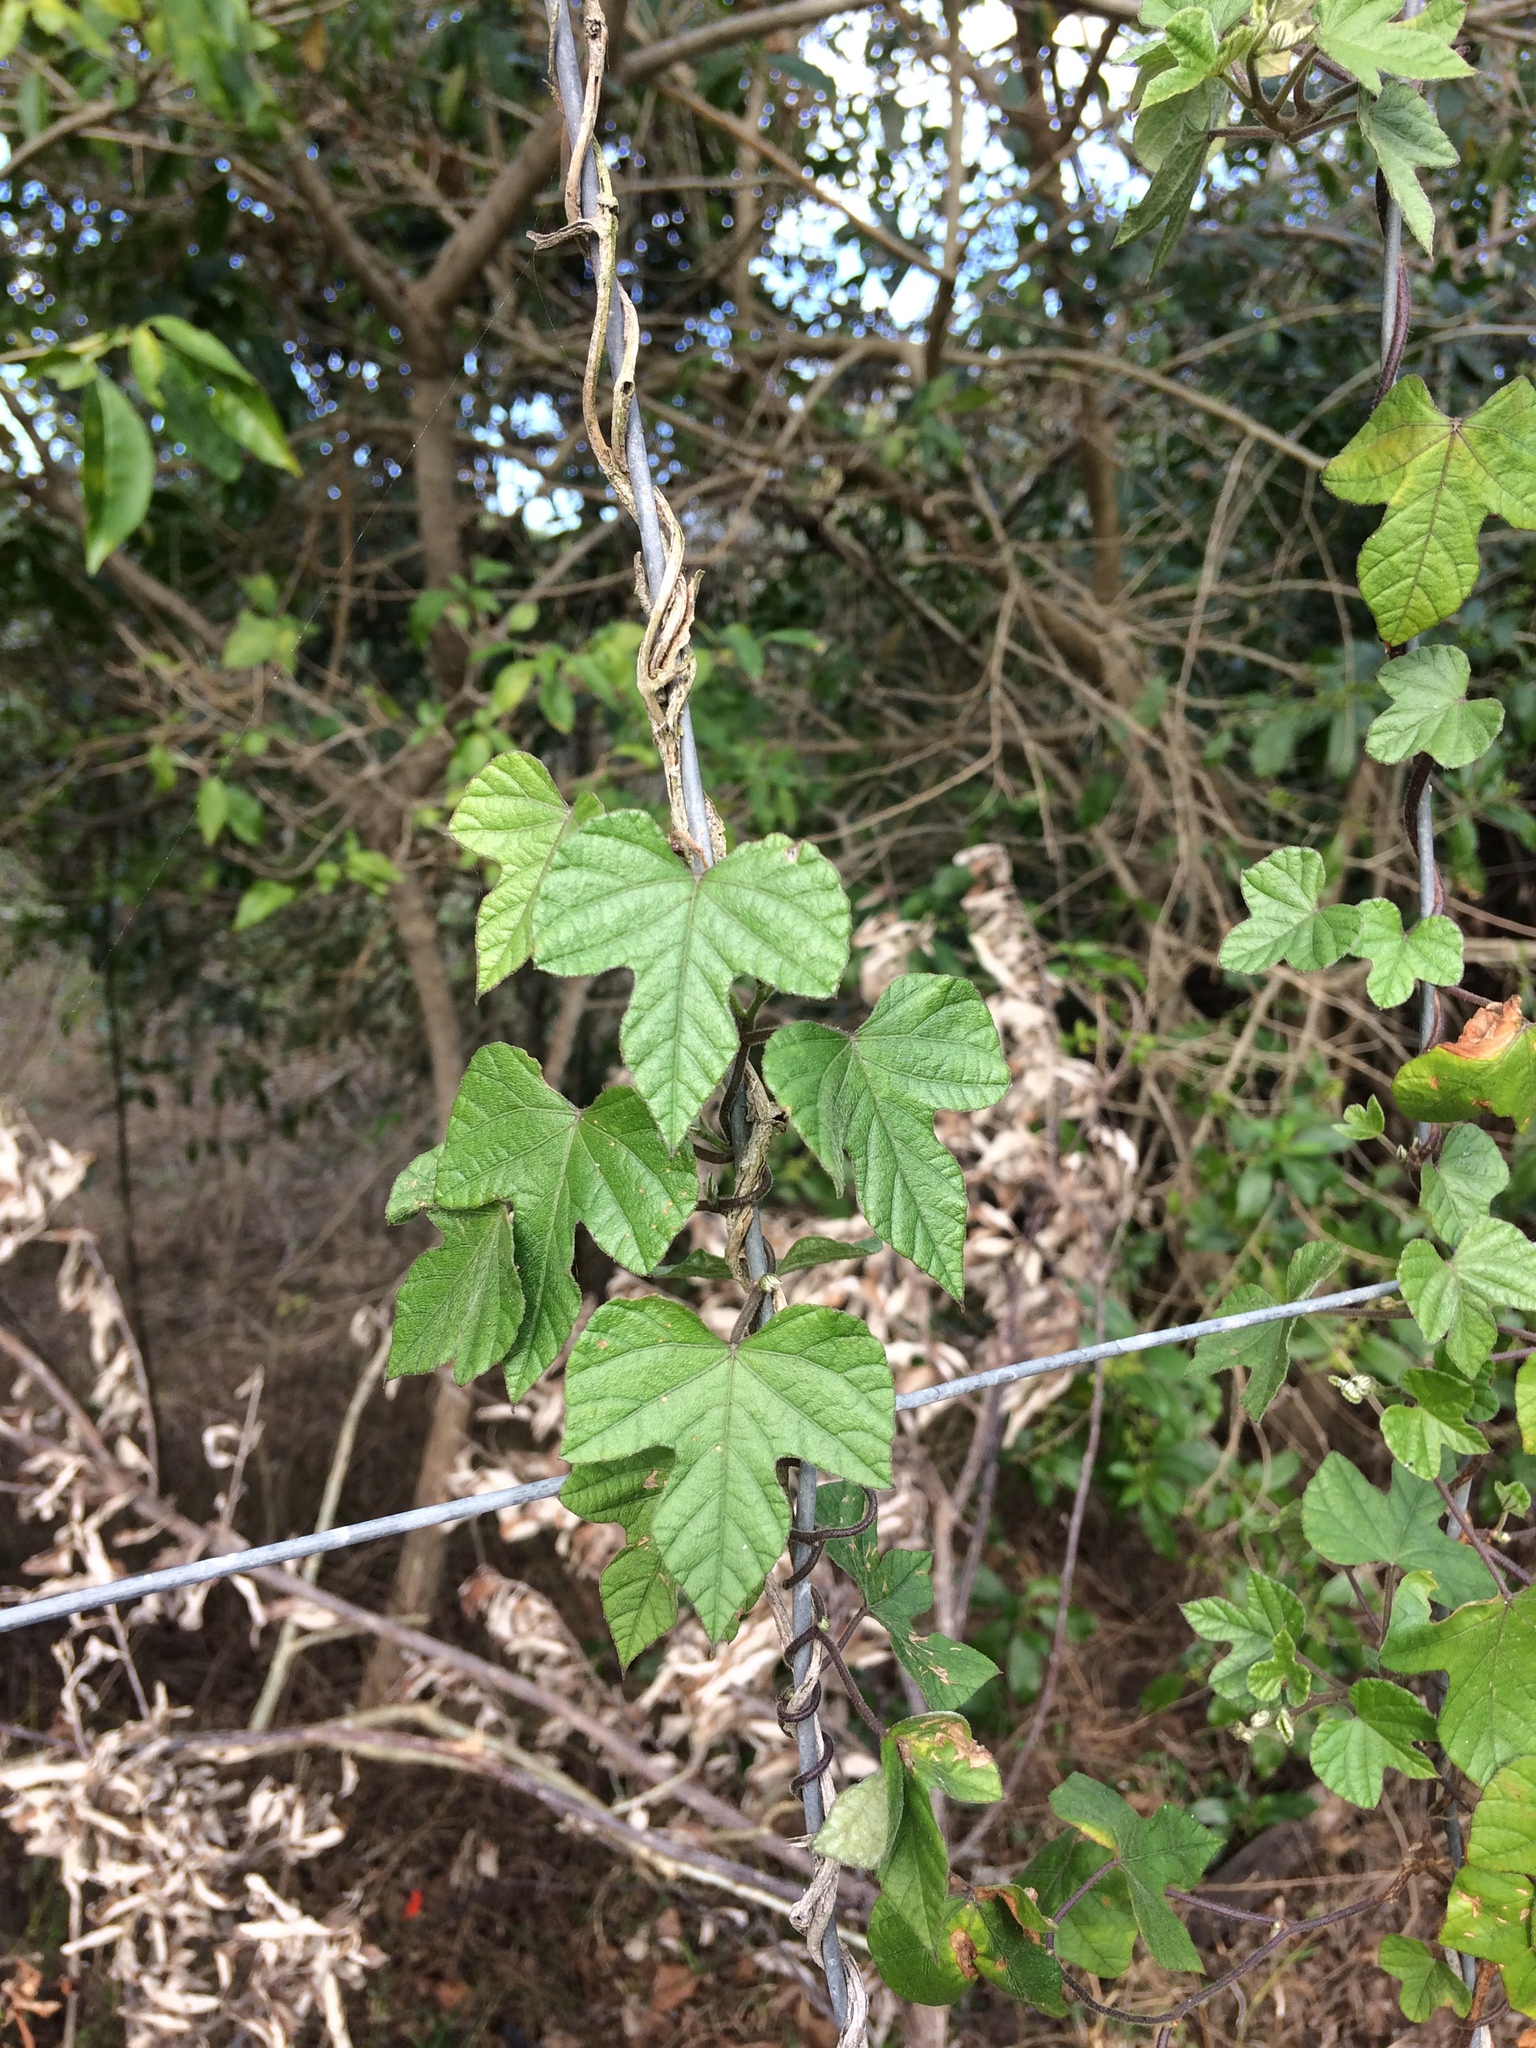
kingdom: Plantae
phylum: Tracheophyta
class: Magnoliopsida
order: Solanales
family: Convolvulaceae
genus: Ipomoea
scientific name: Ipomoea ficifolia
